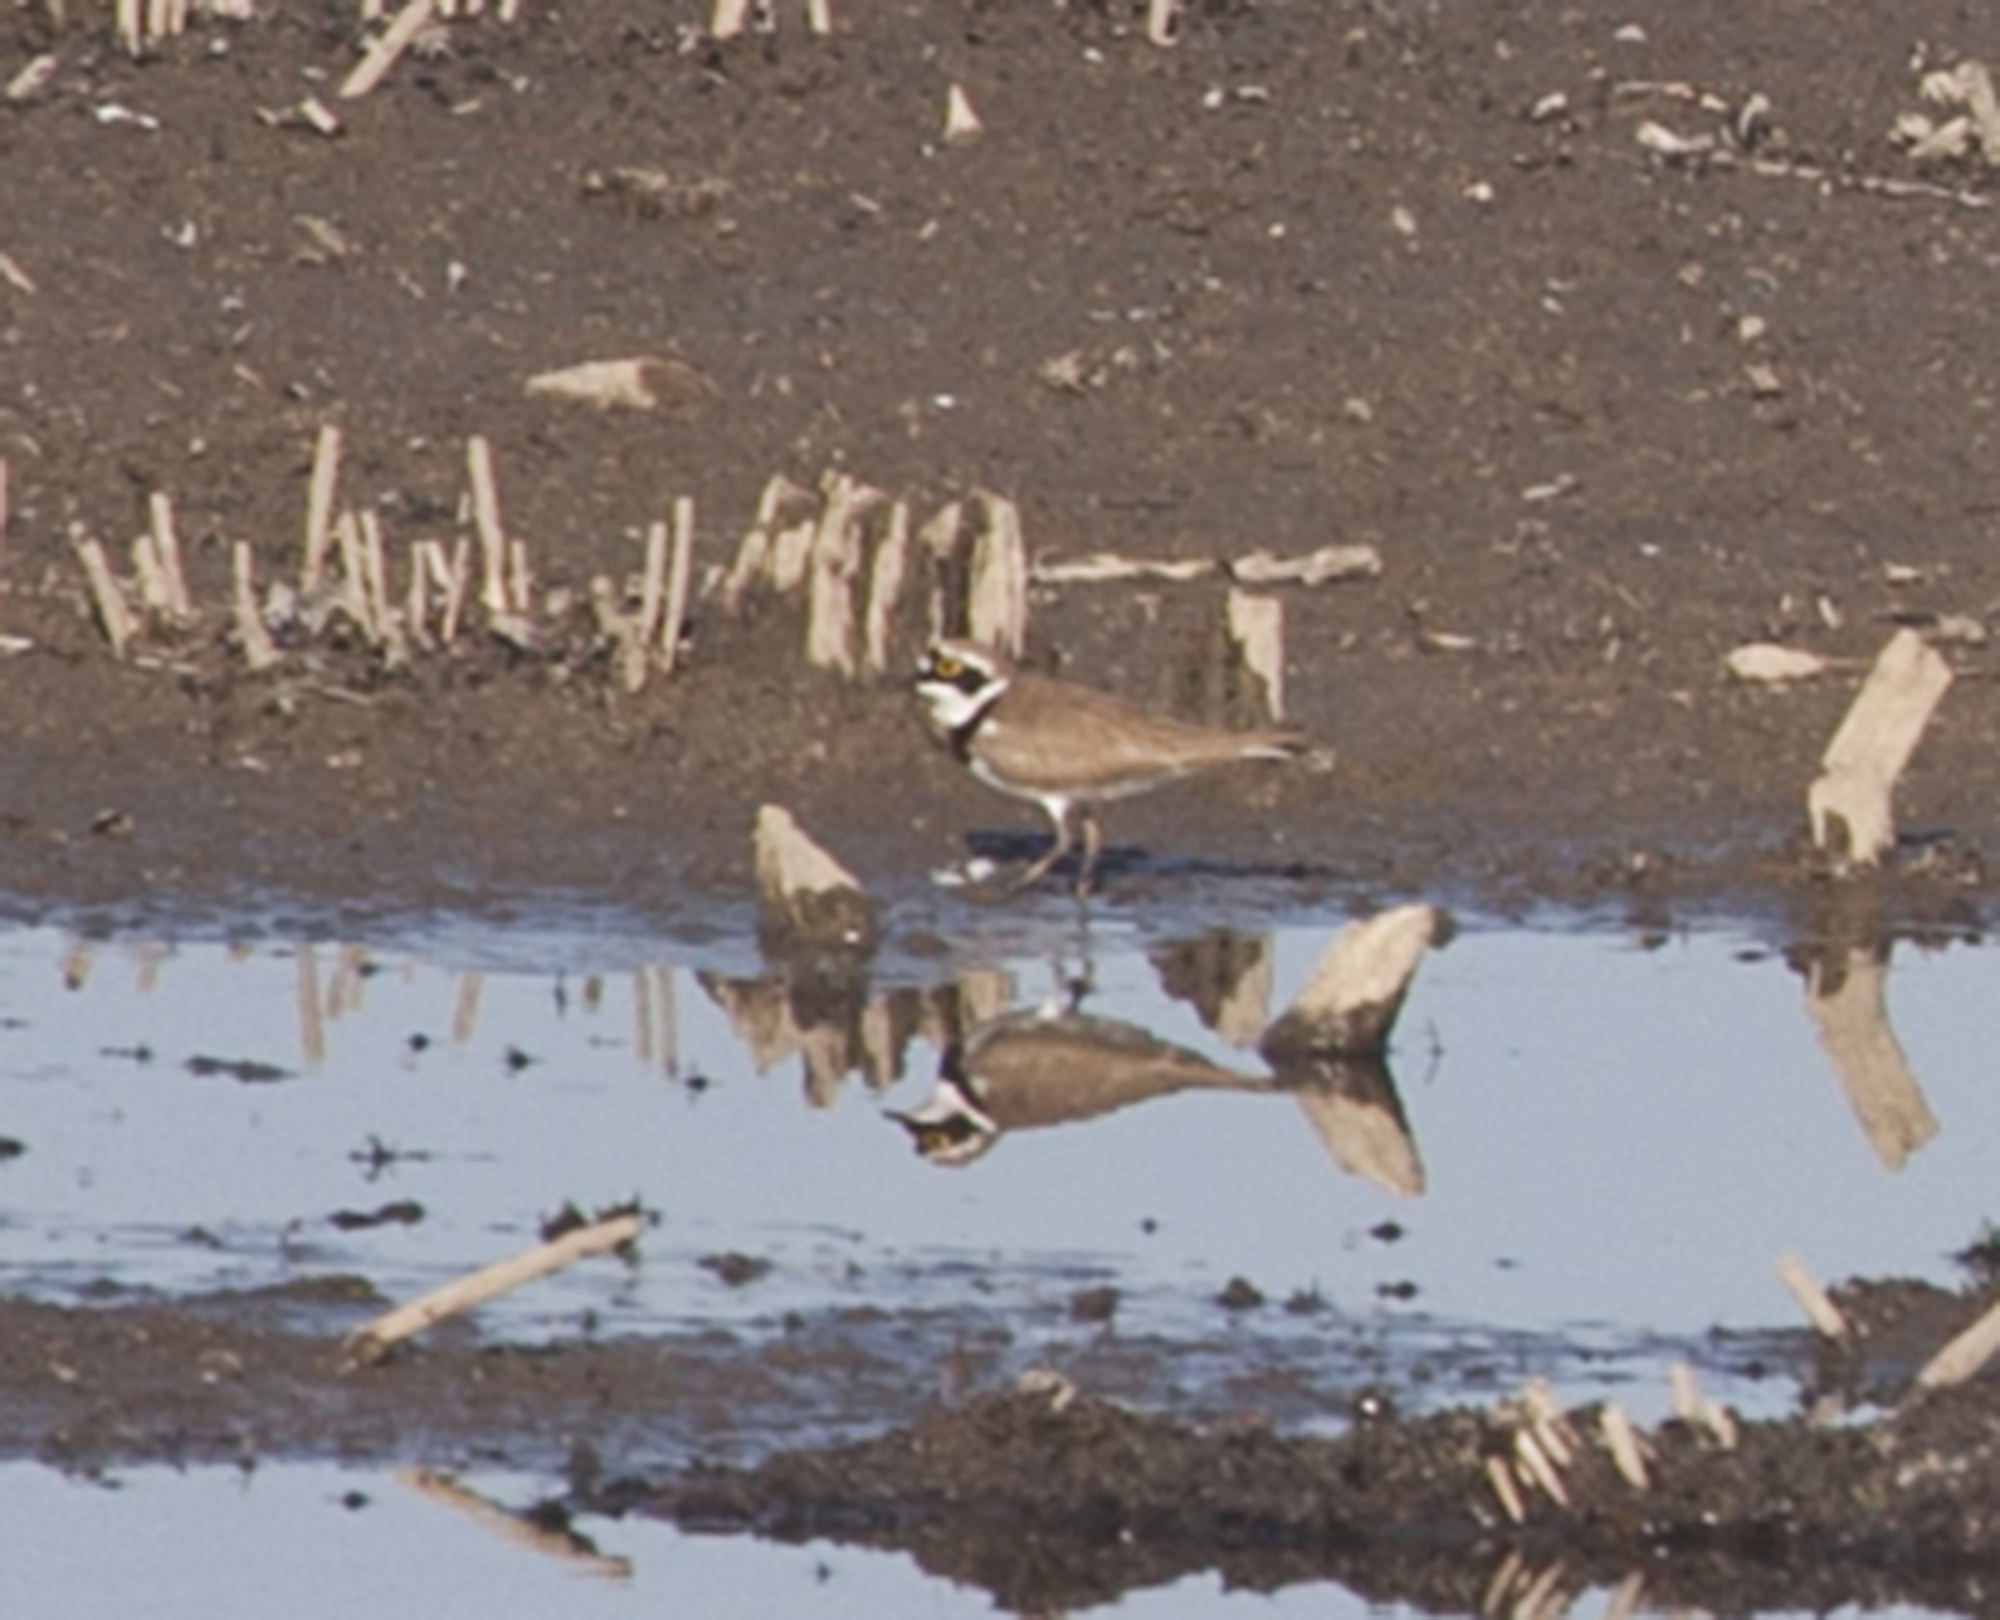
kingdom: Animalia
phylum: Chordata
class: Aves
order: Charadriiformes
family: Charadriidae
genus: Charadrius
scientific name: Charadrius dubius
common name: Little ringed plover
